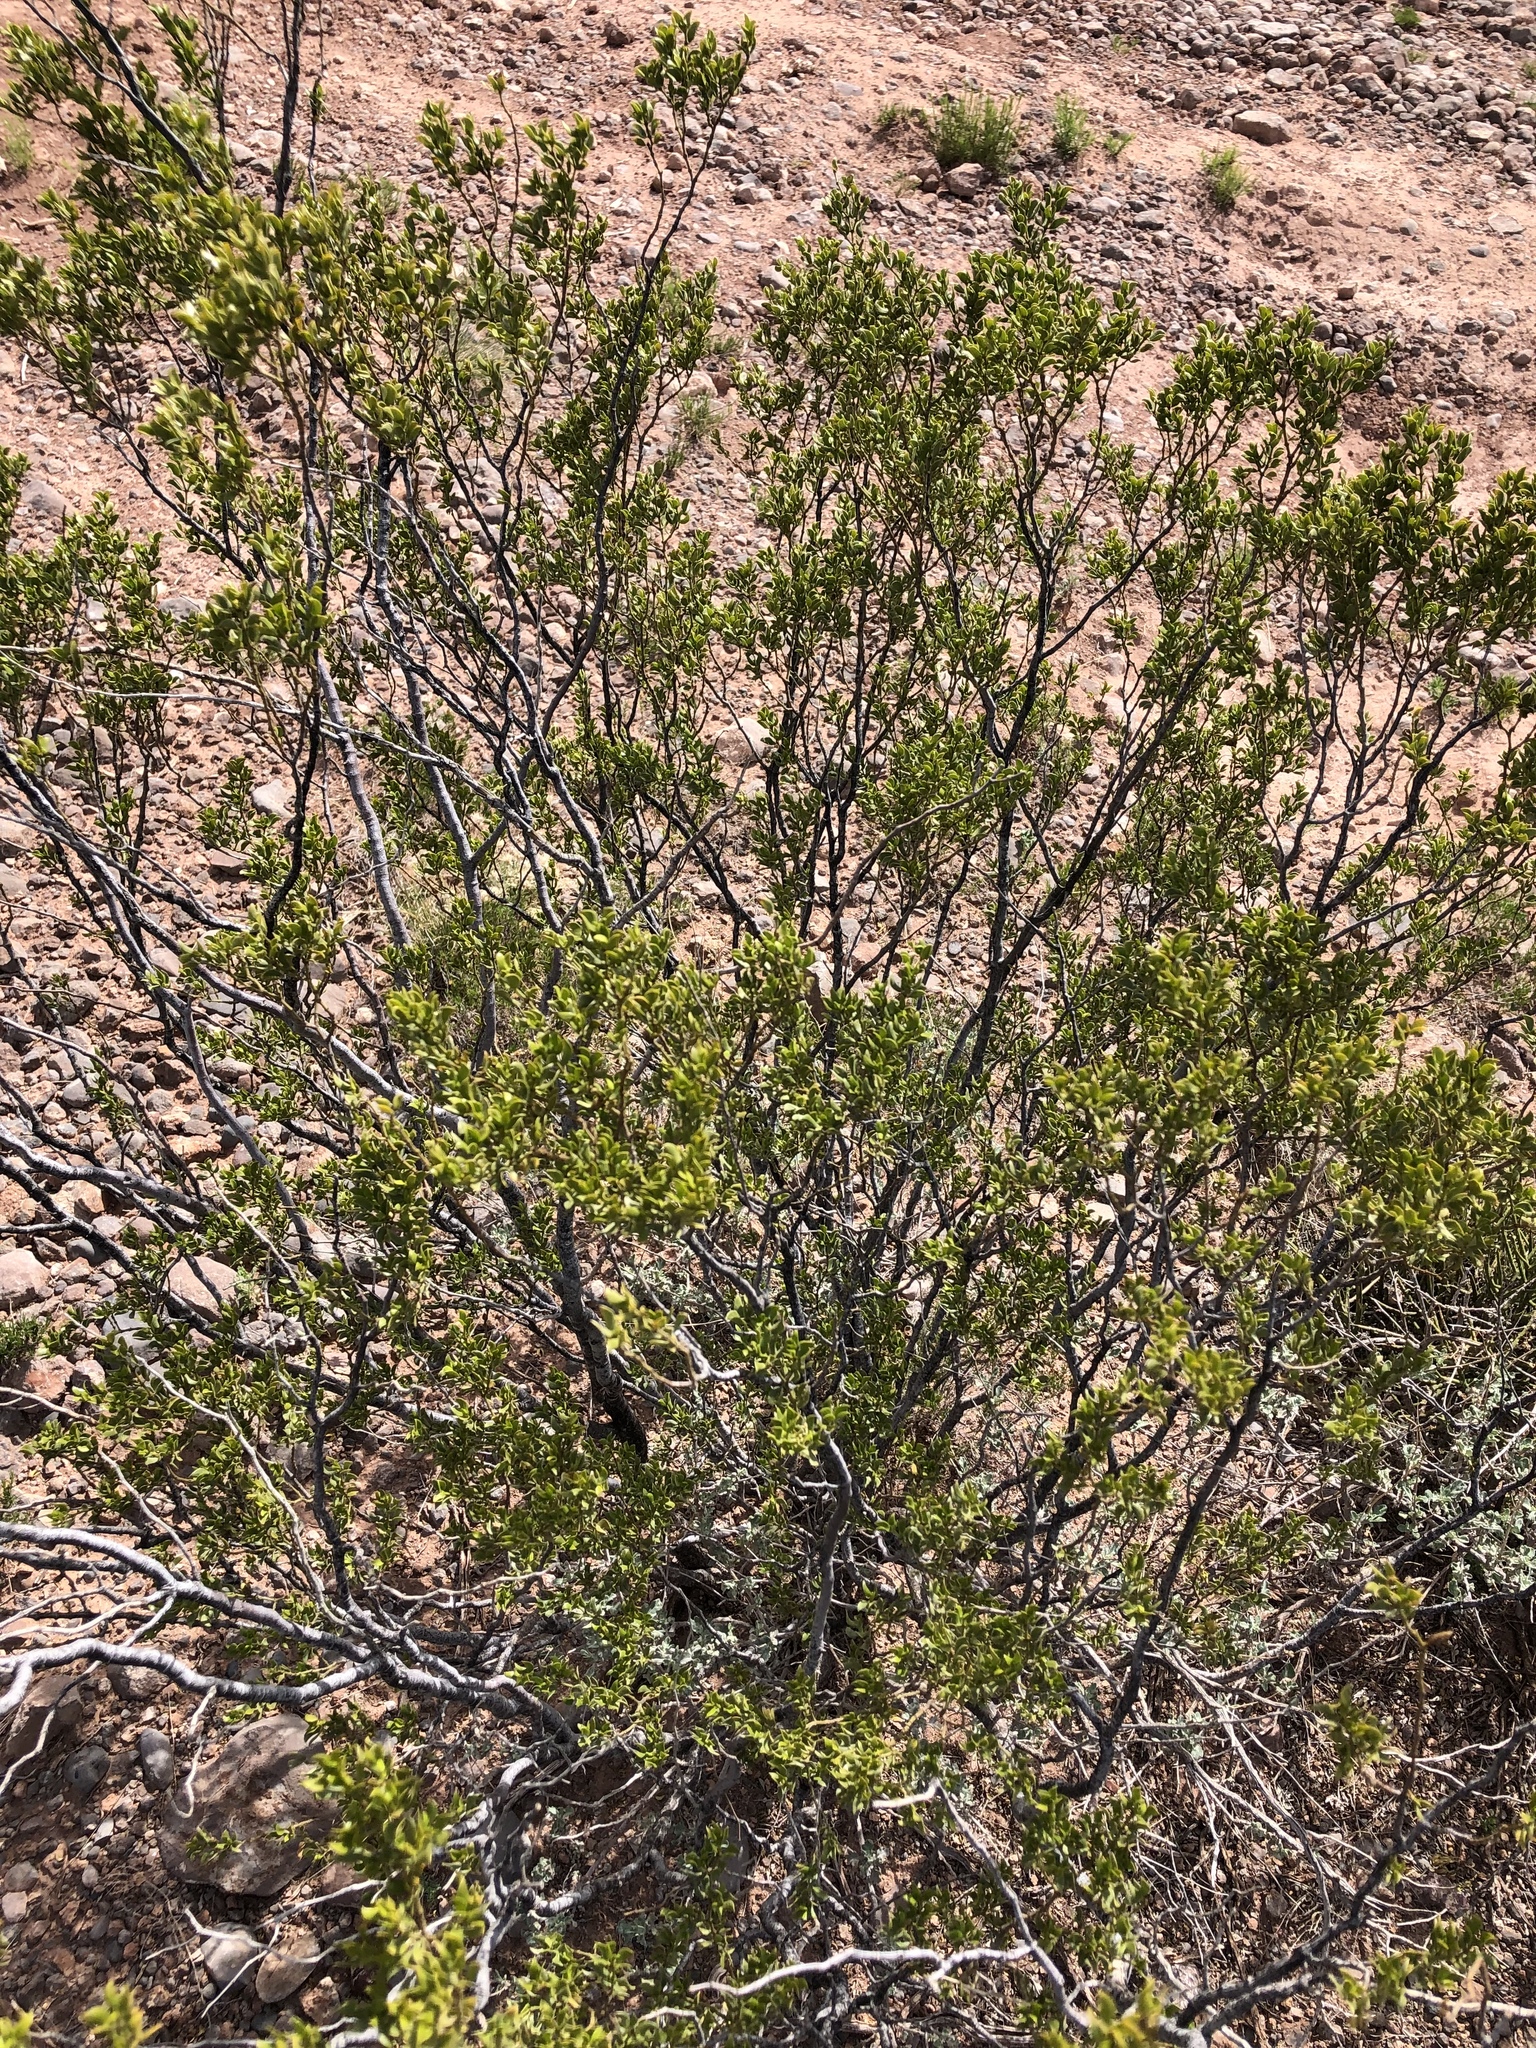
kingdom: Plantae
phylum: Tracheophyta
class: Magnoliopsida
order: Zygophyllales
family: Zygophyllaceae
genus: Larrea
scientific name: Larrea tridentata
